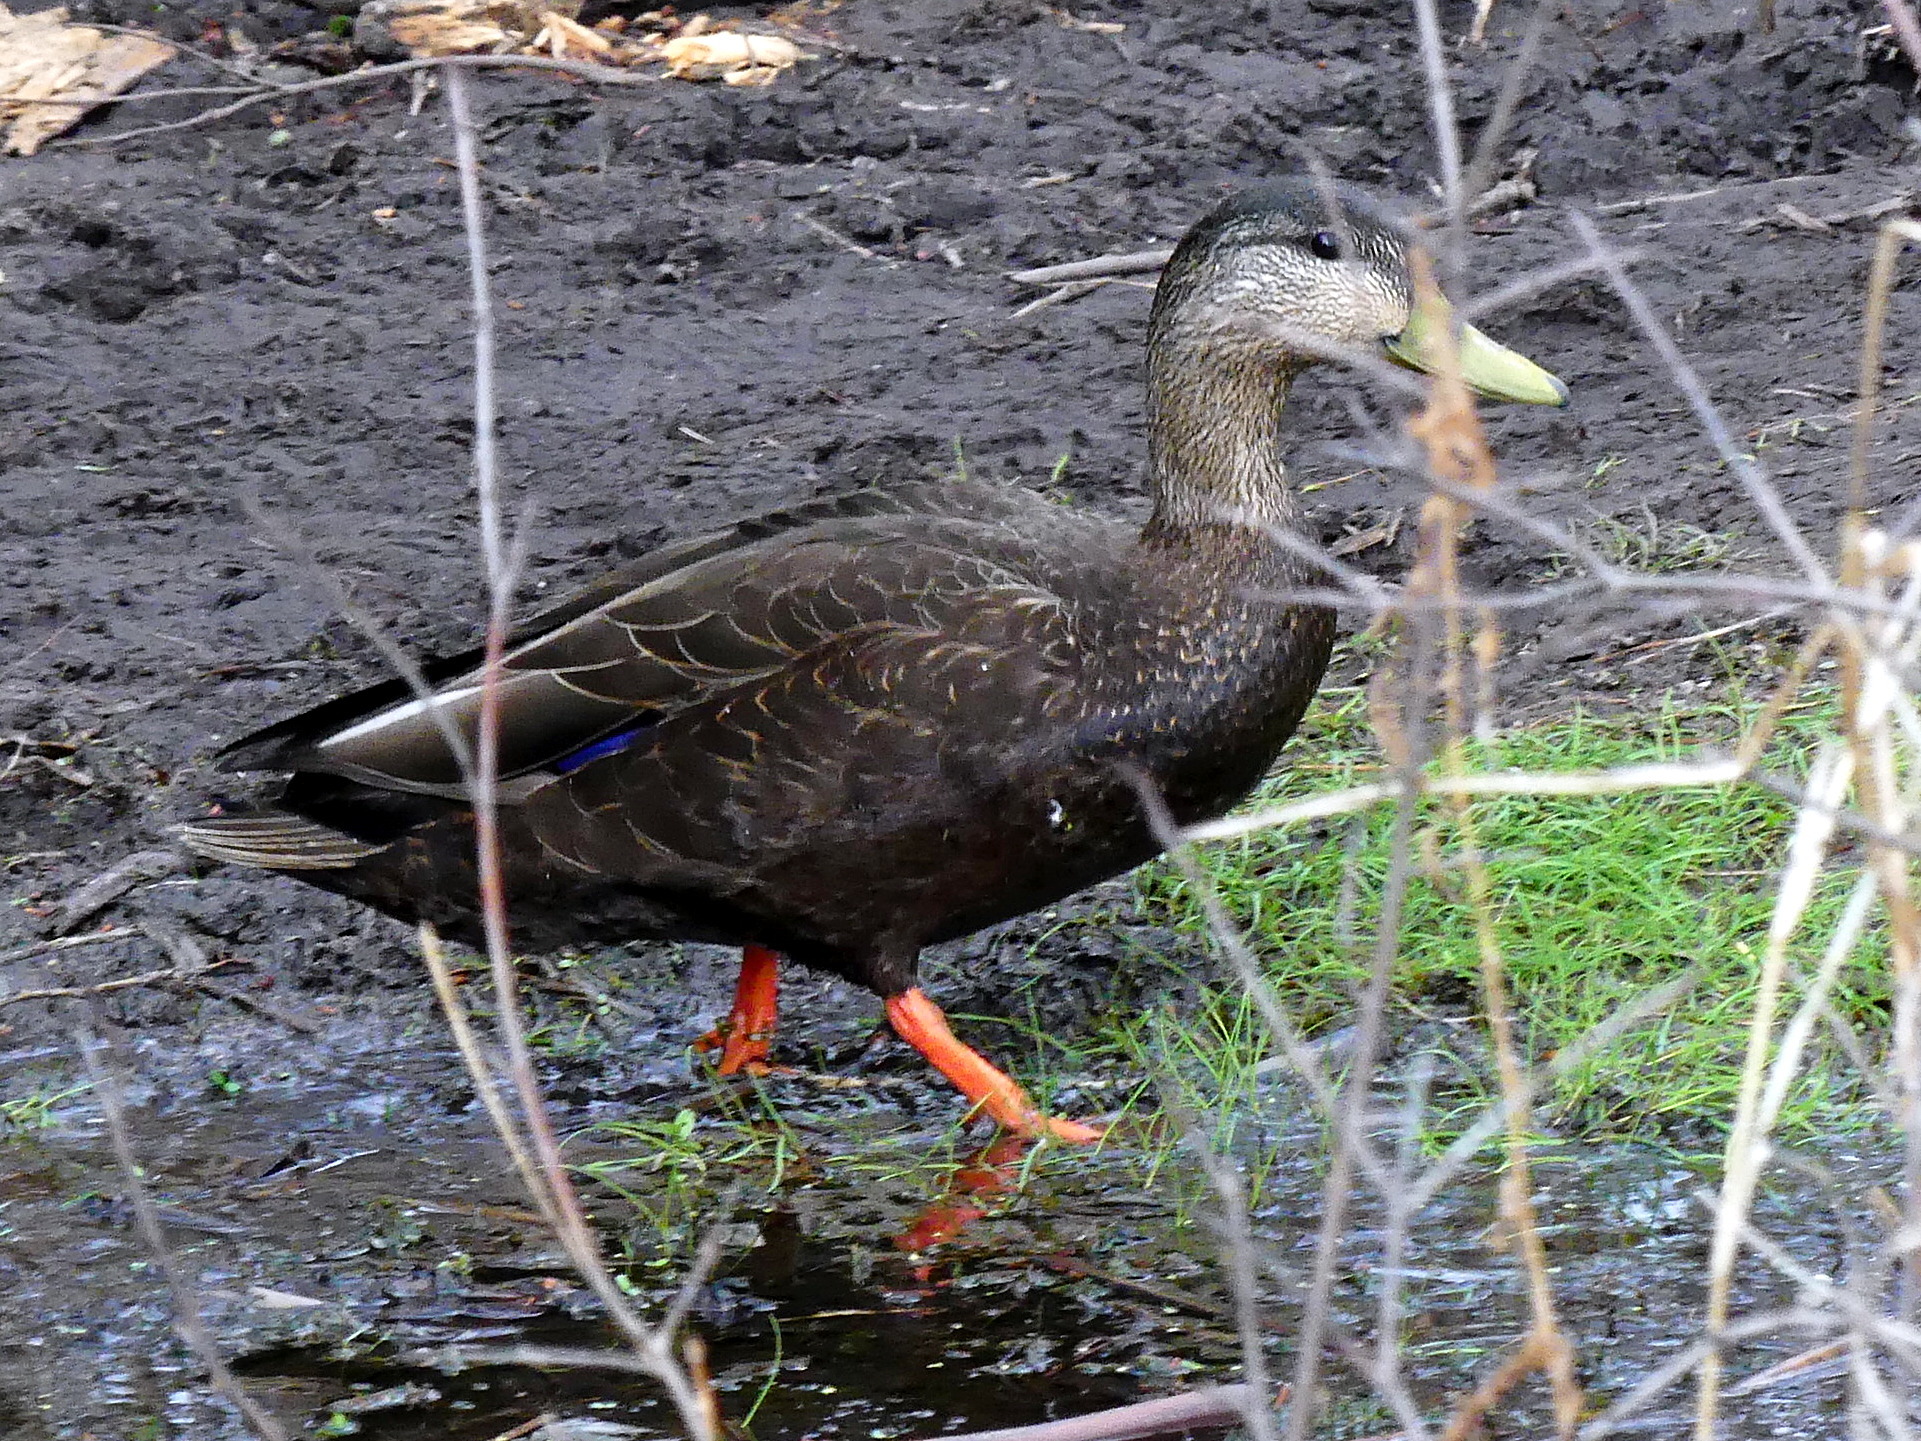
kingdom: Animalia
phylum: Chordata
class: Aves
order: Anseriformes
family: Anatidae
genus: Anas
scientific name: Anas rubripes
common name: American black duck
